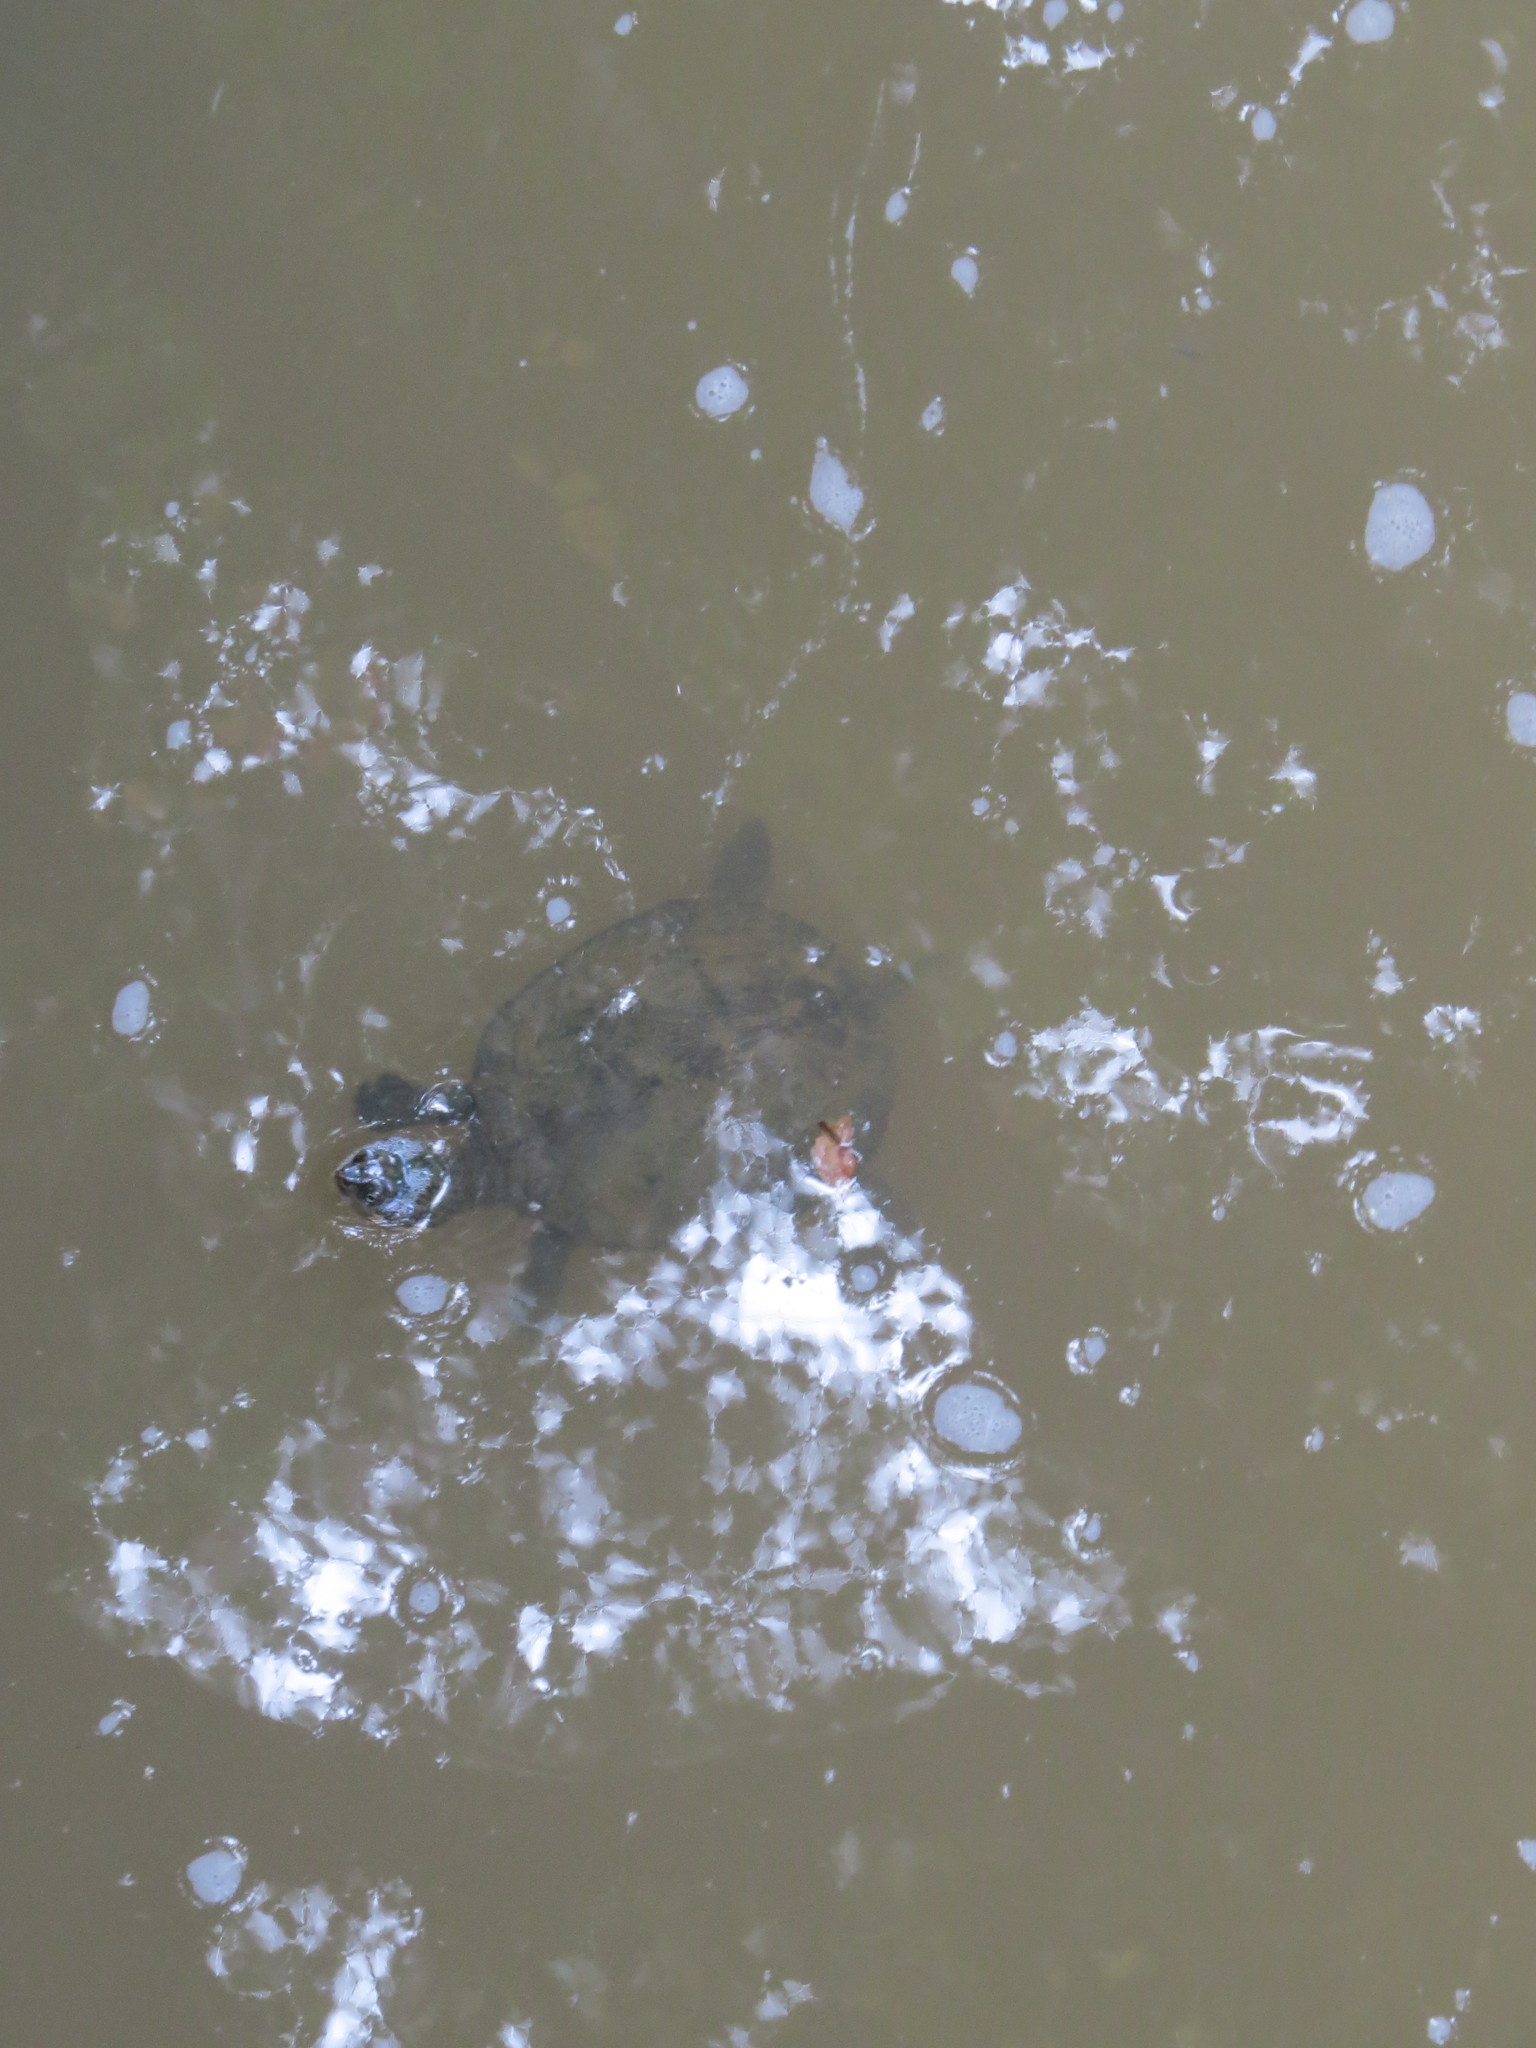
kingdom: Animalia
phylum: Chordata
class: Testudines
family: Chelidae
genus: Myuchelys
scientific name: Myuchelys latisternum
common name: Serrated snapping turtle
